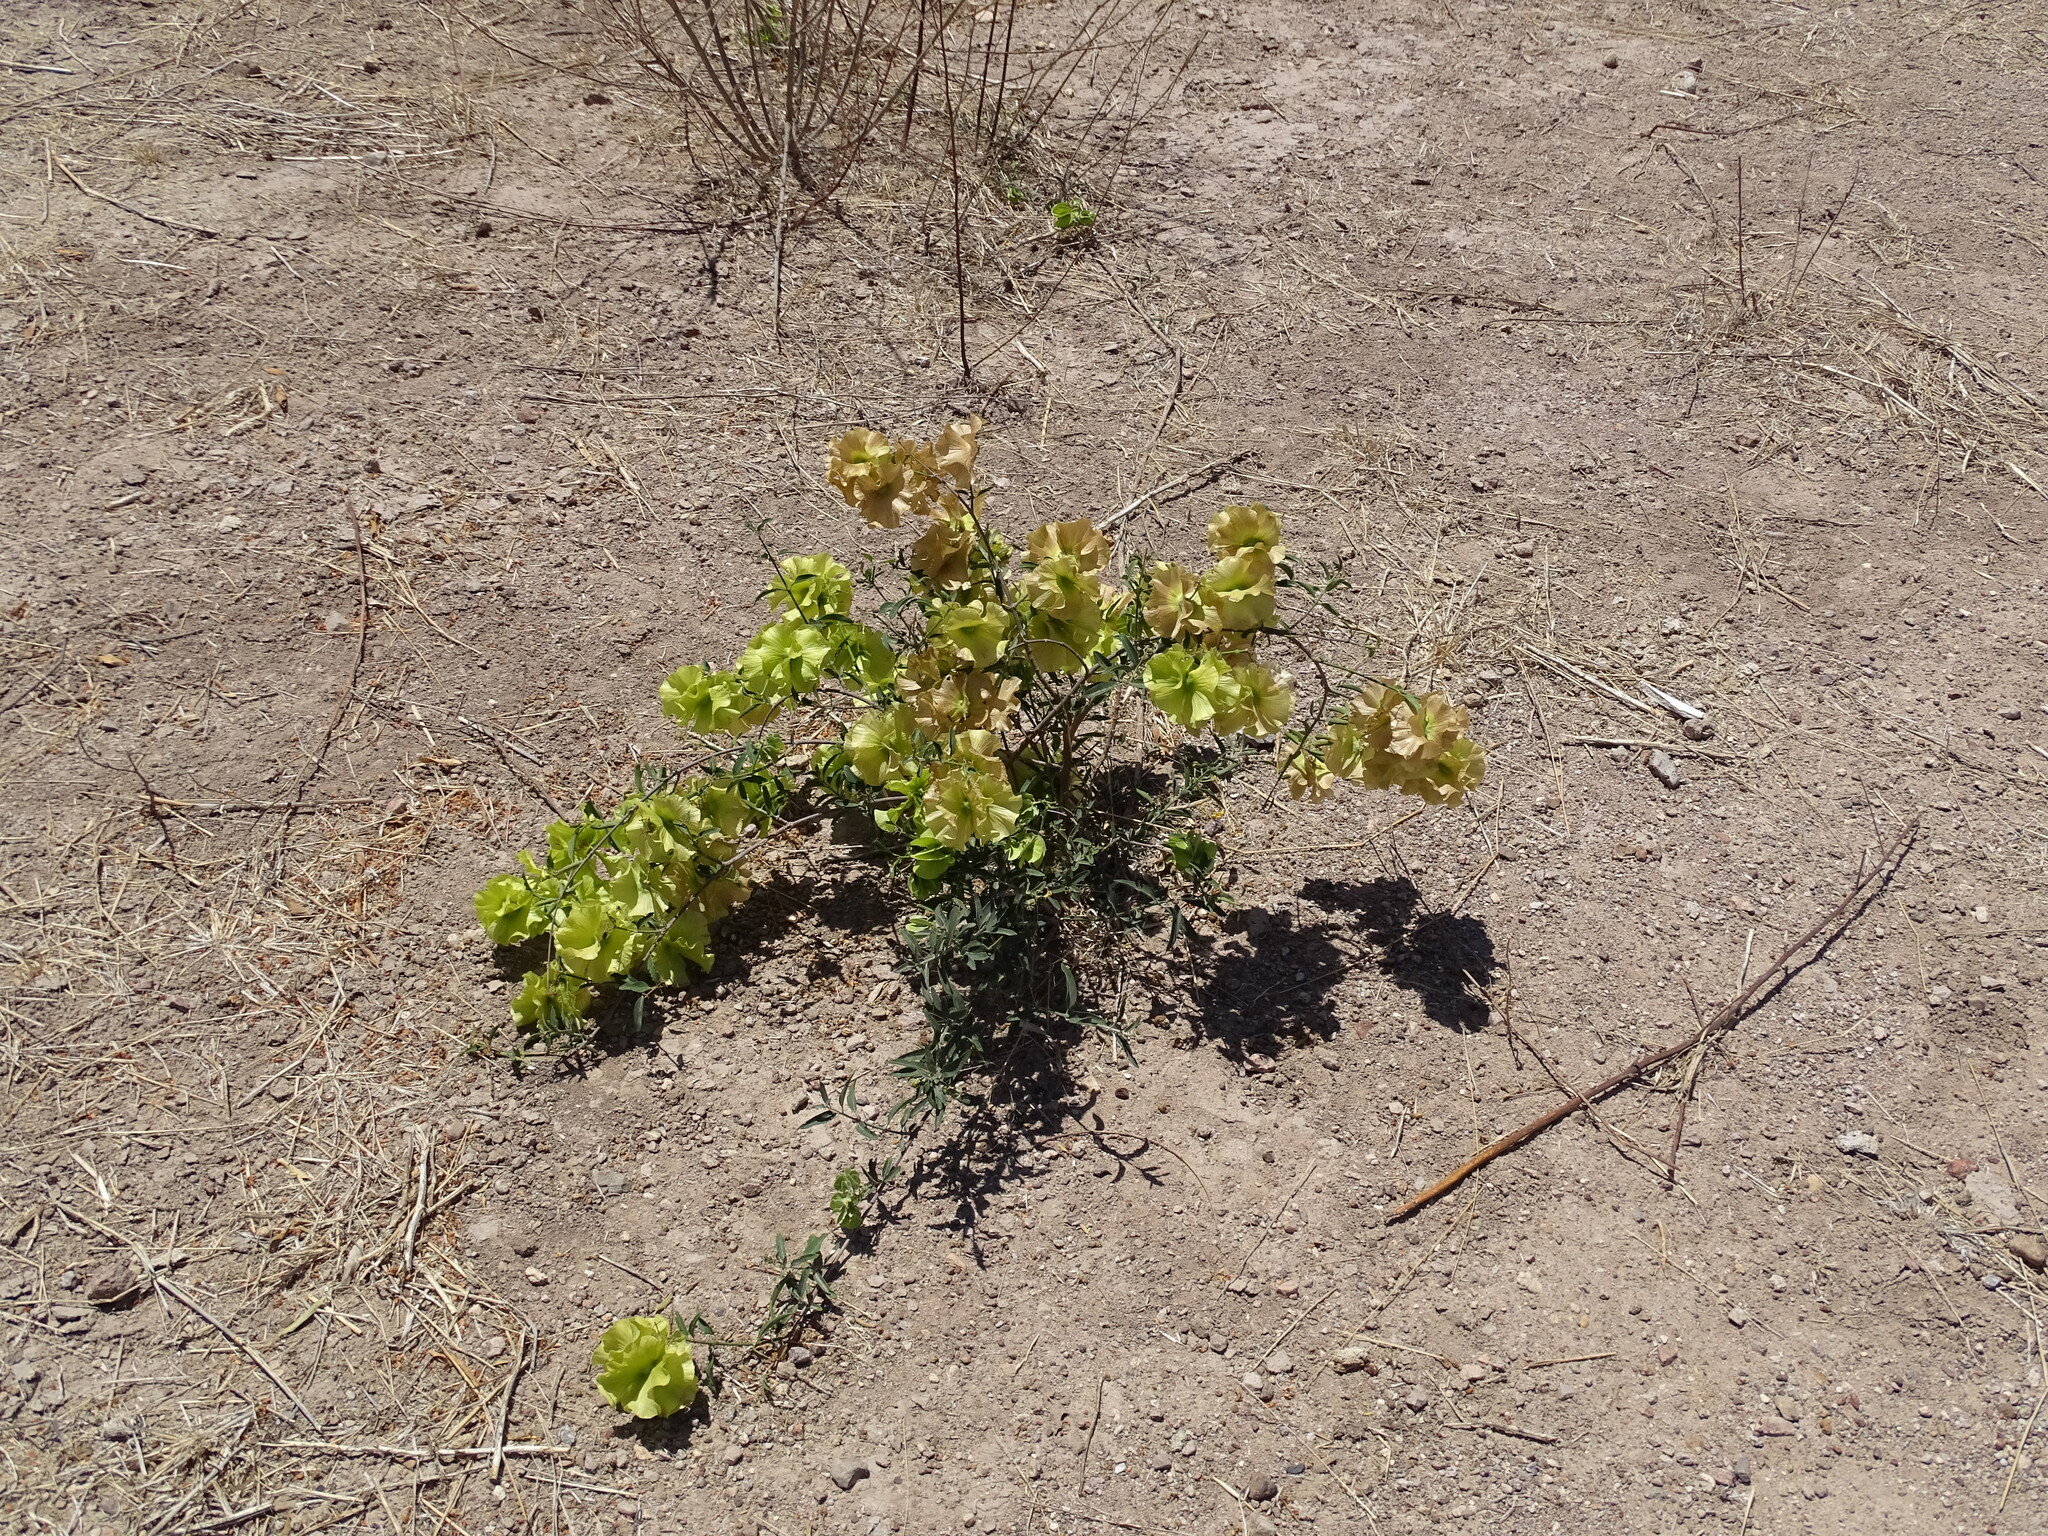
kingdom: Plantae
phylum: Tracheophyta
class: Magnoliopsida
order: Malpighiales
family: Malpighiaceae
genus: Callaeum
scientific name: Callaeum macropterum
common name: Mexican butterfly-vine
